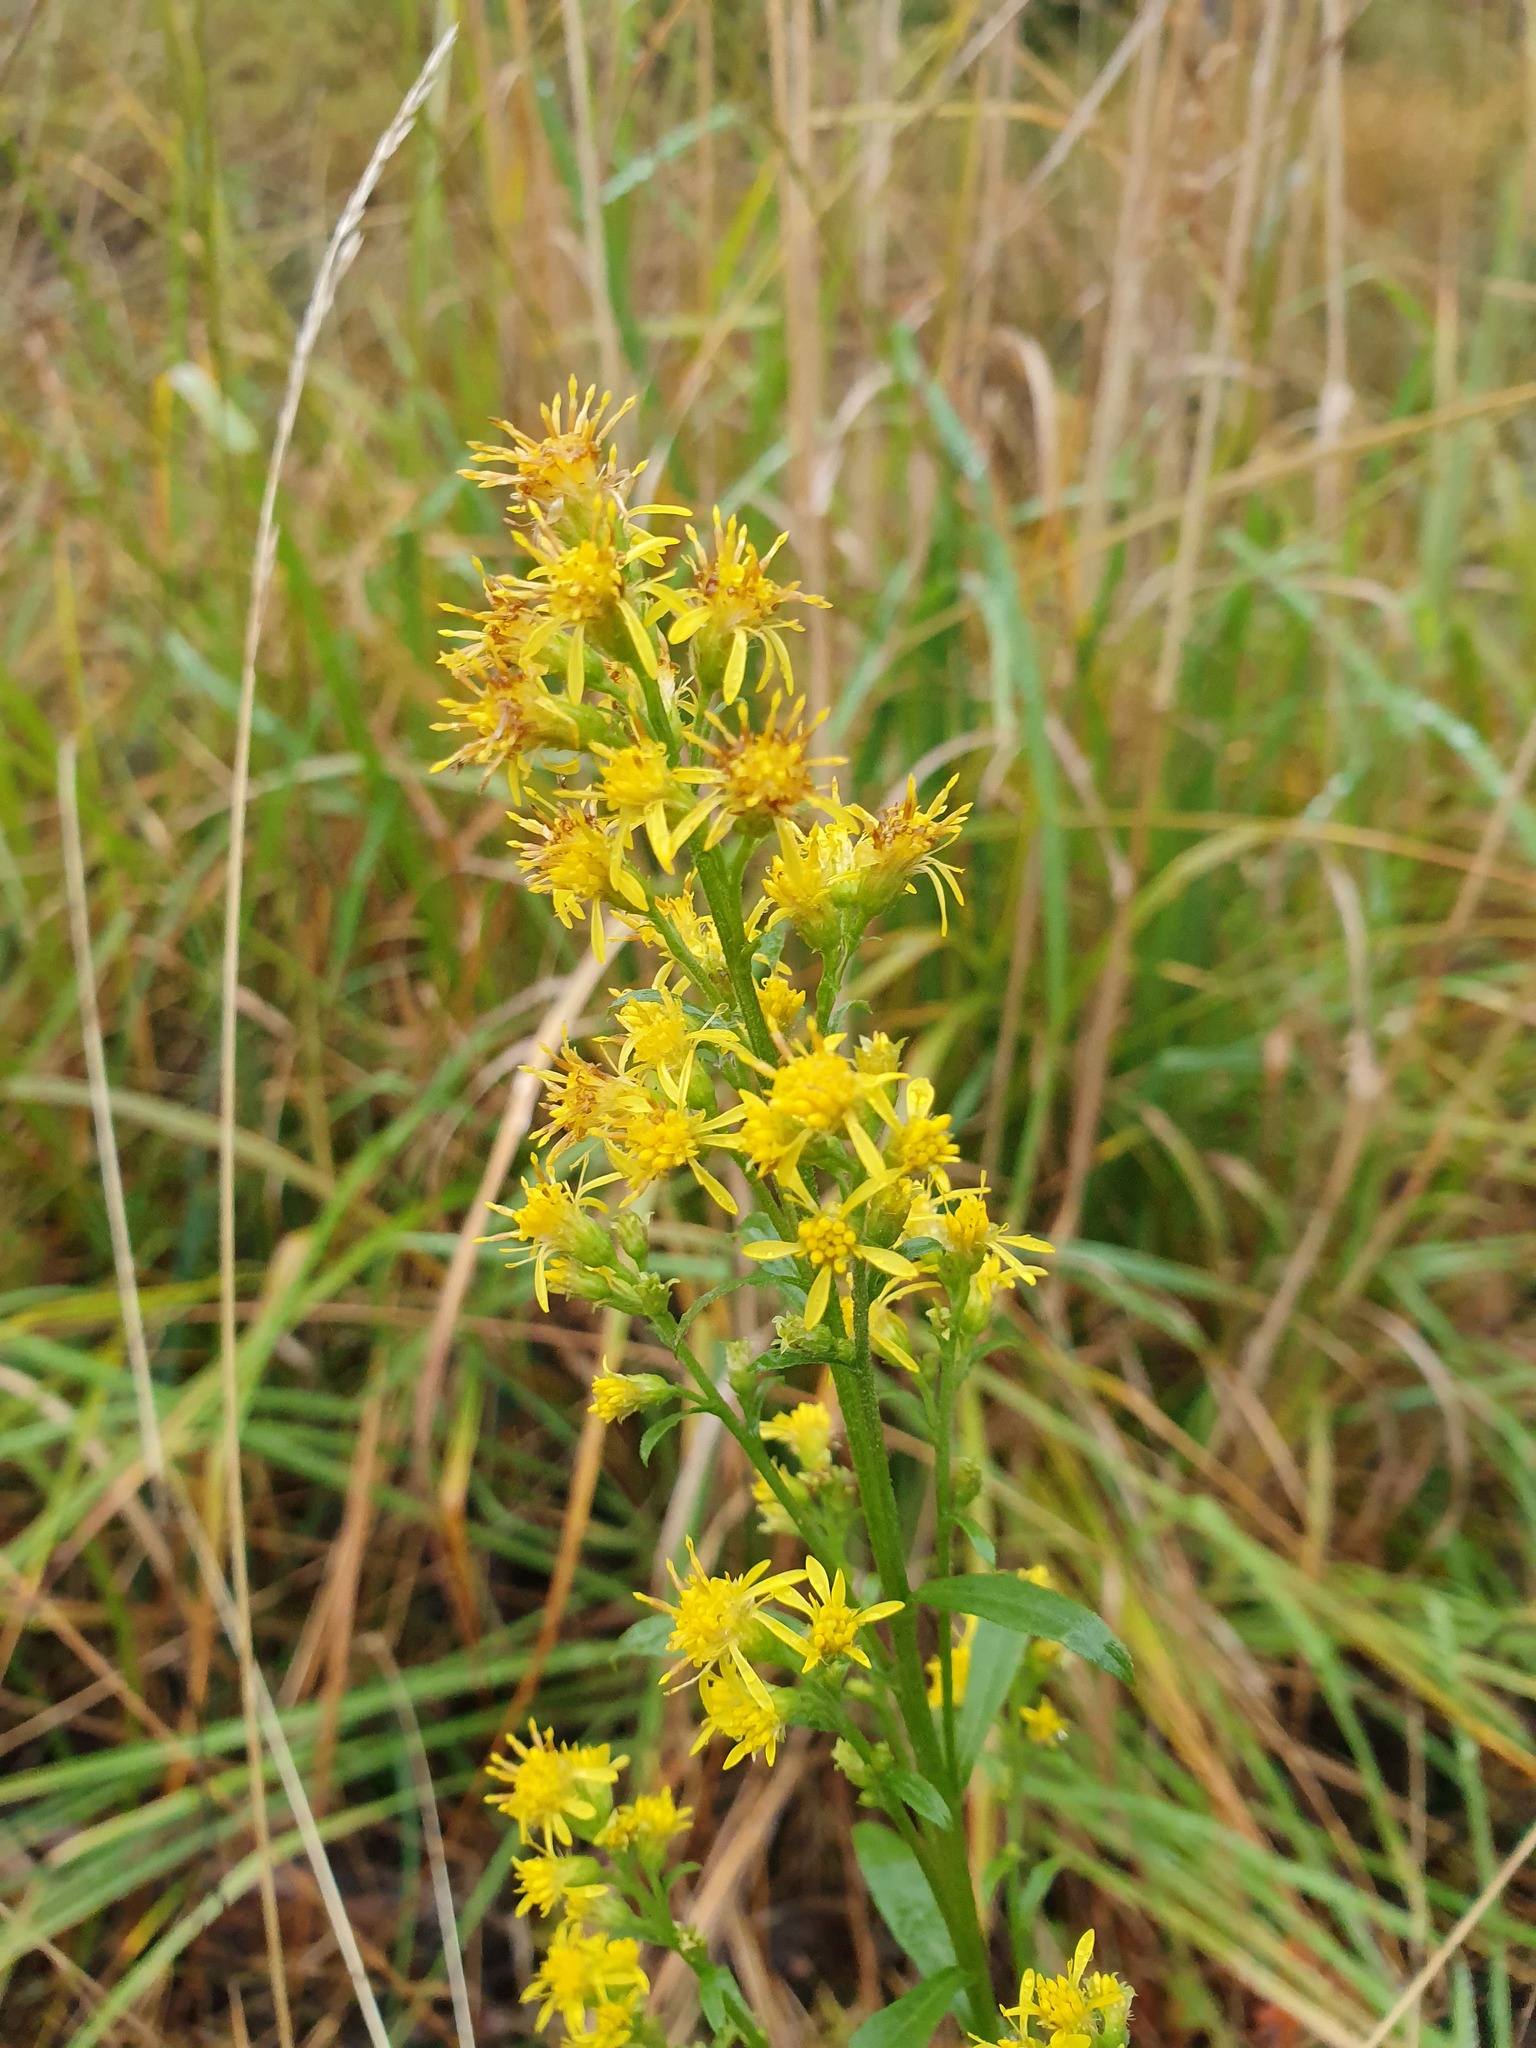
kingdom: Plantae
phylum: Tracheophyta
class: Magnoliopsida
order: Asterales
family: Asteraceae
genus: Solidago
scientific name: Solidago virgaurea
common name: Goldenrod
